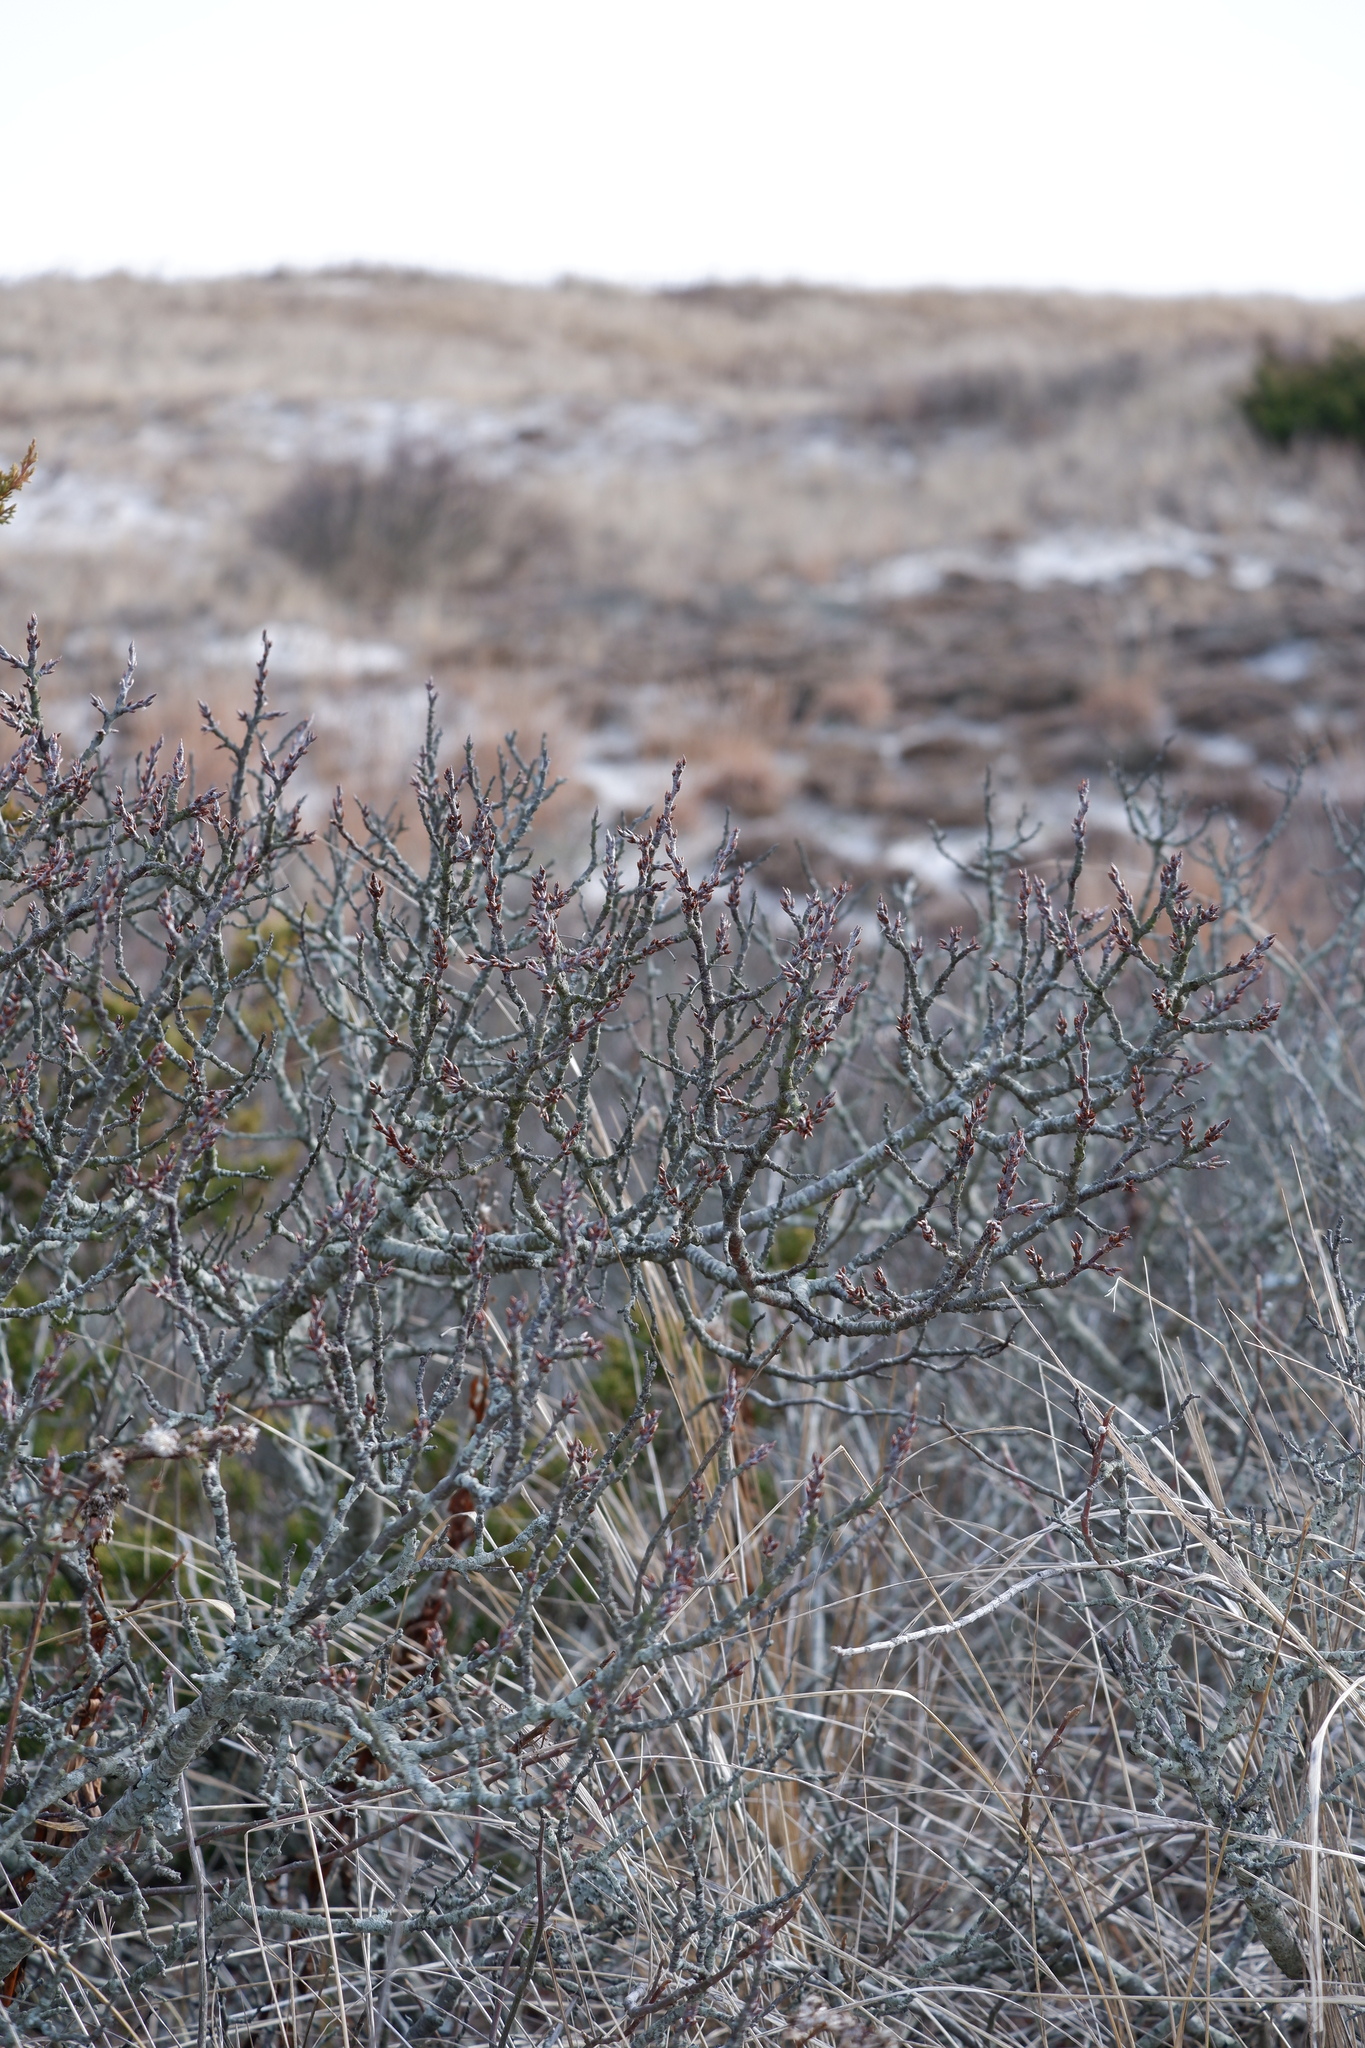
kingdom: Plantae
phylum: Tracheophyta
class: Magnoliopsida
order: Rosales
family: Rosaceae
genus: Prunus
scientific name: Prunus maritima
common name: Beach plum
